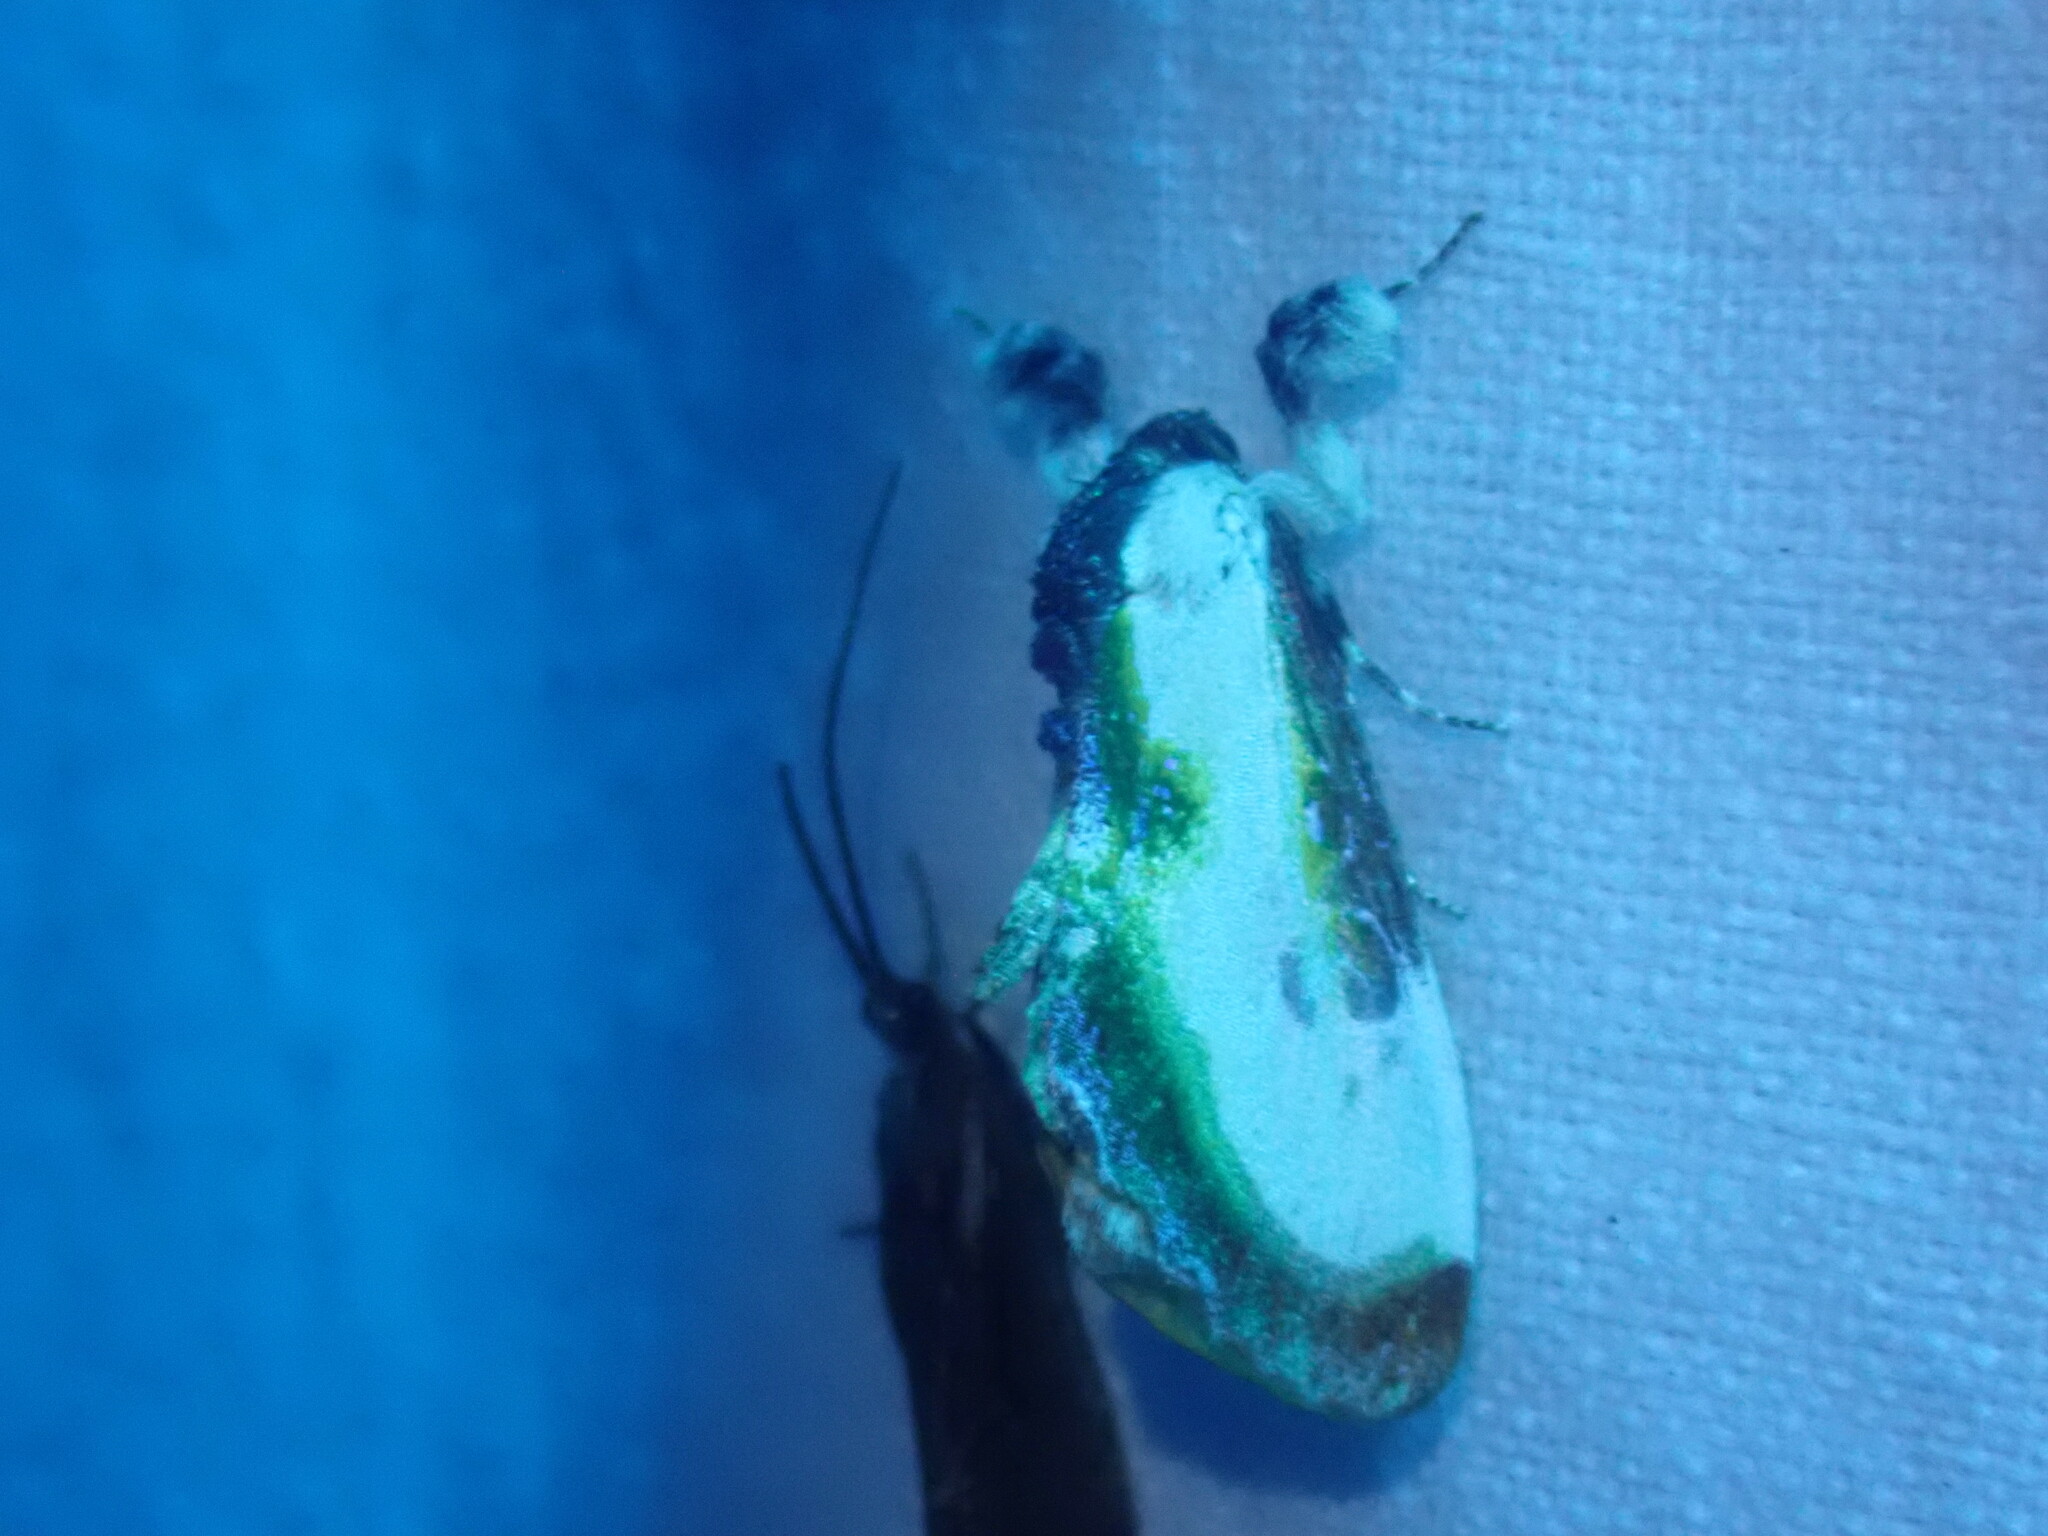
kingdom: Animalia
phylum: Arthropoda
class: Insecta
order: Lepidoptera
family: Noctuidae
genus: Eudryas
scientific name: Eudryas grata
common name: Beautiful wood-nymph
